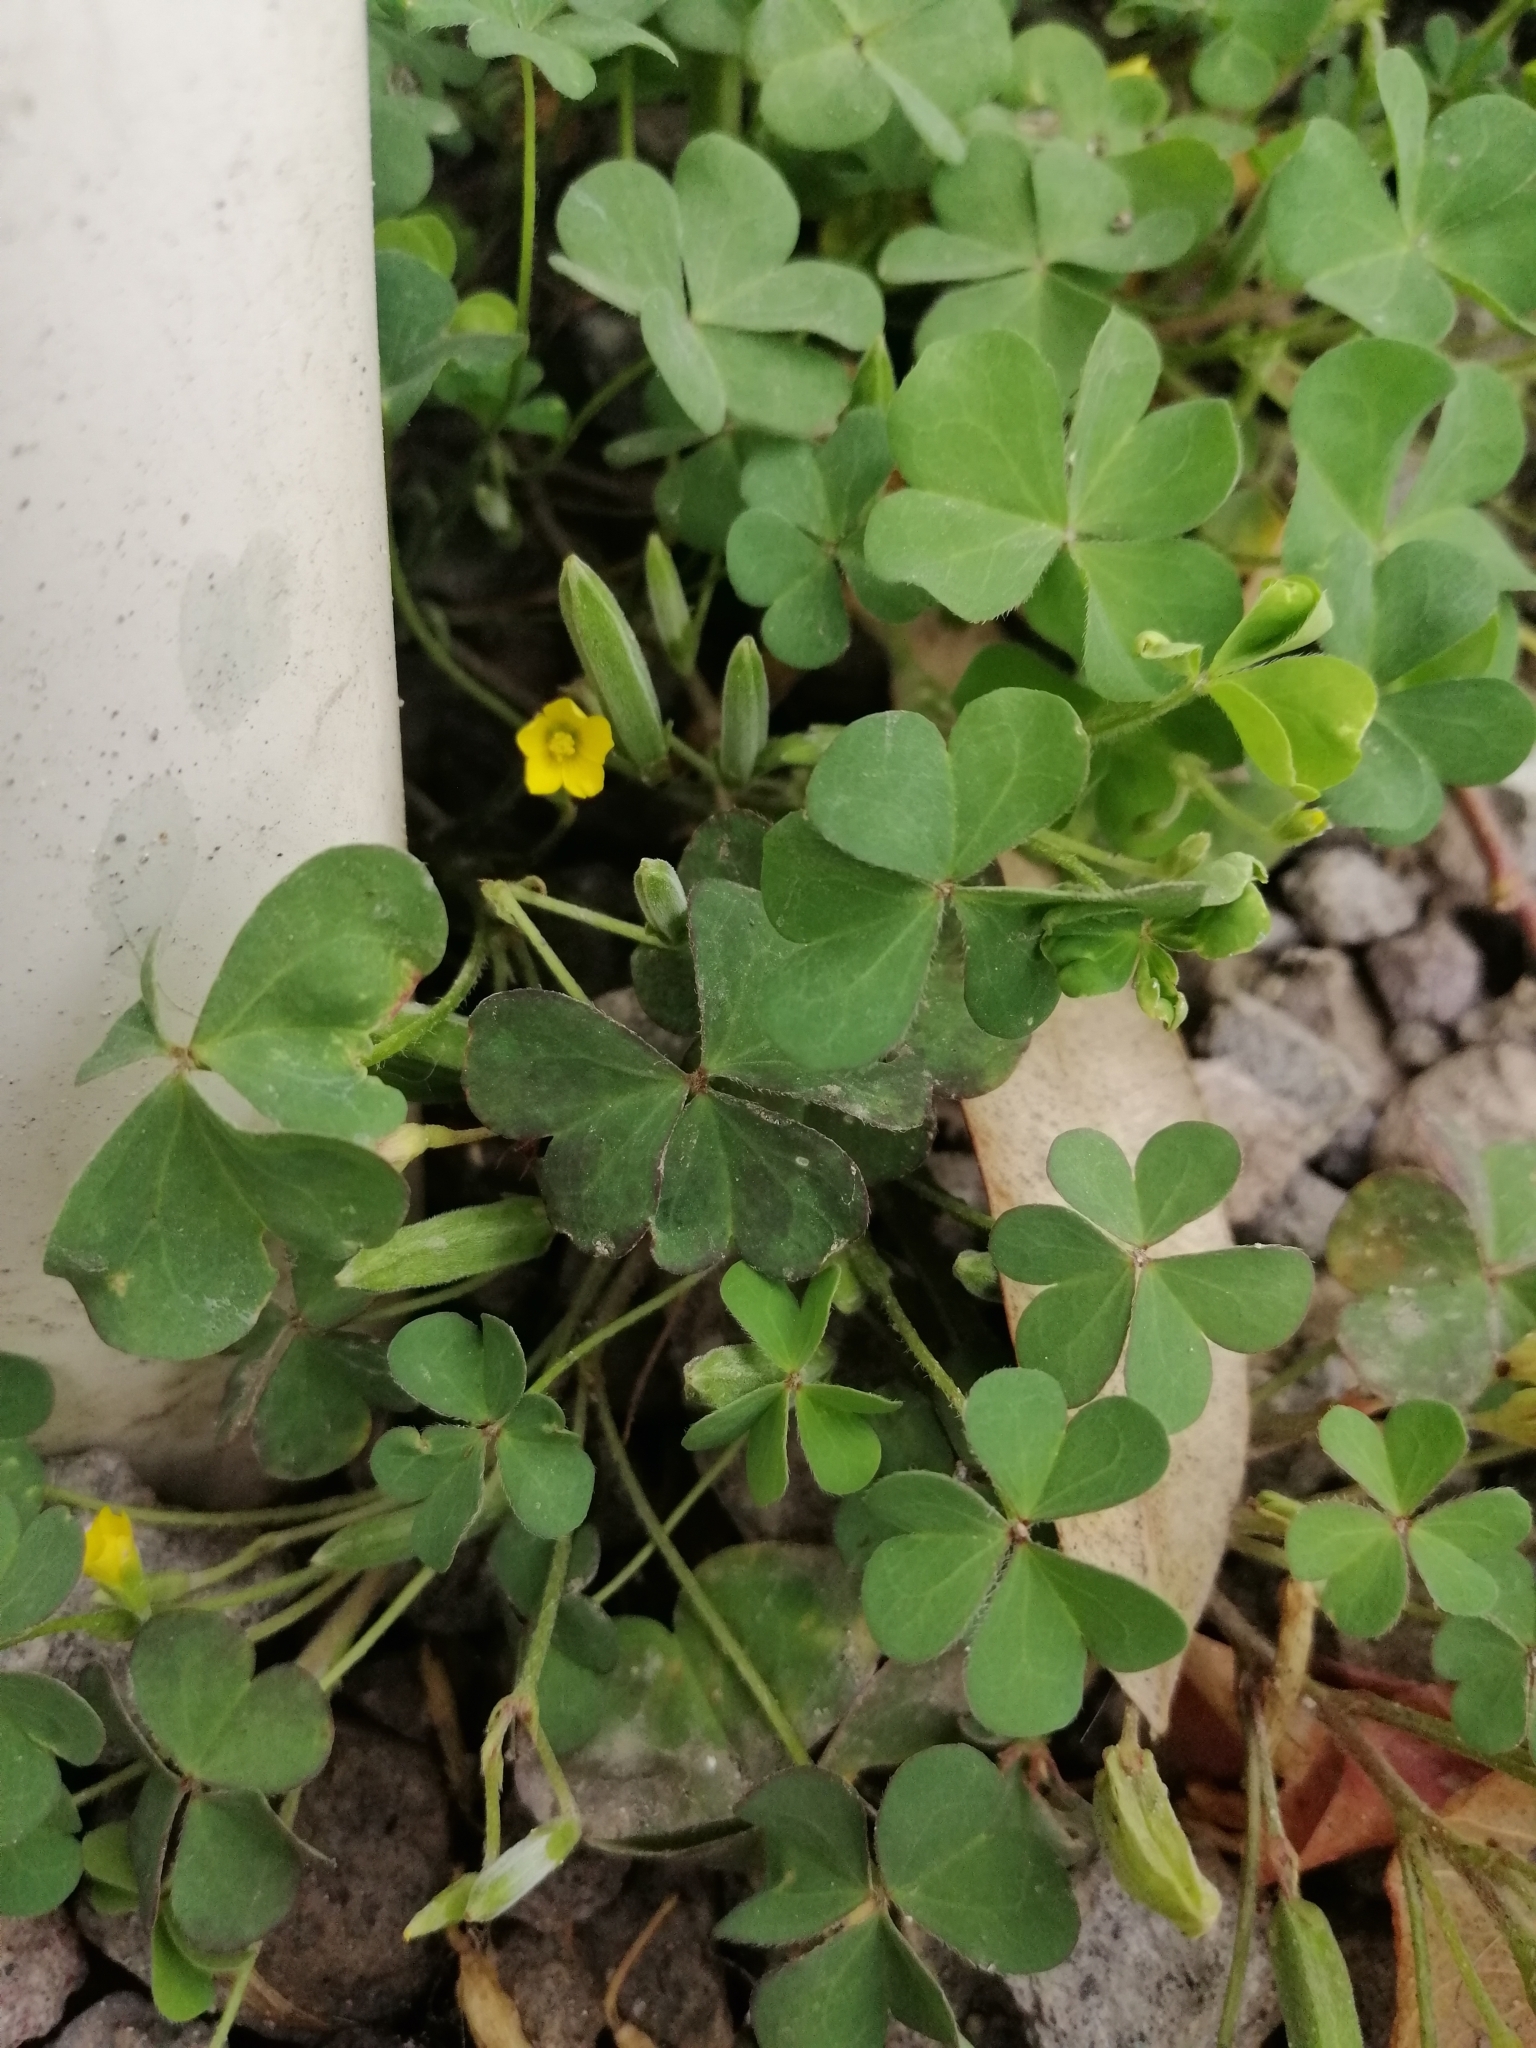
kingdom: Plantae
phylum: Tracheophyta
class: Magnoliopsida
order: Oxalidales
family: Oxalidaceae
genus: Oxalis
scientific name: Oxalis corniculata
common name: Procumbent yellow-sorrel
